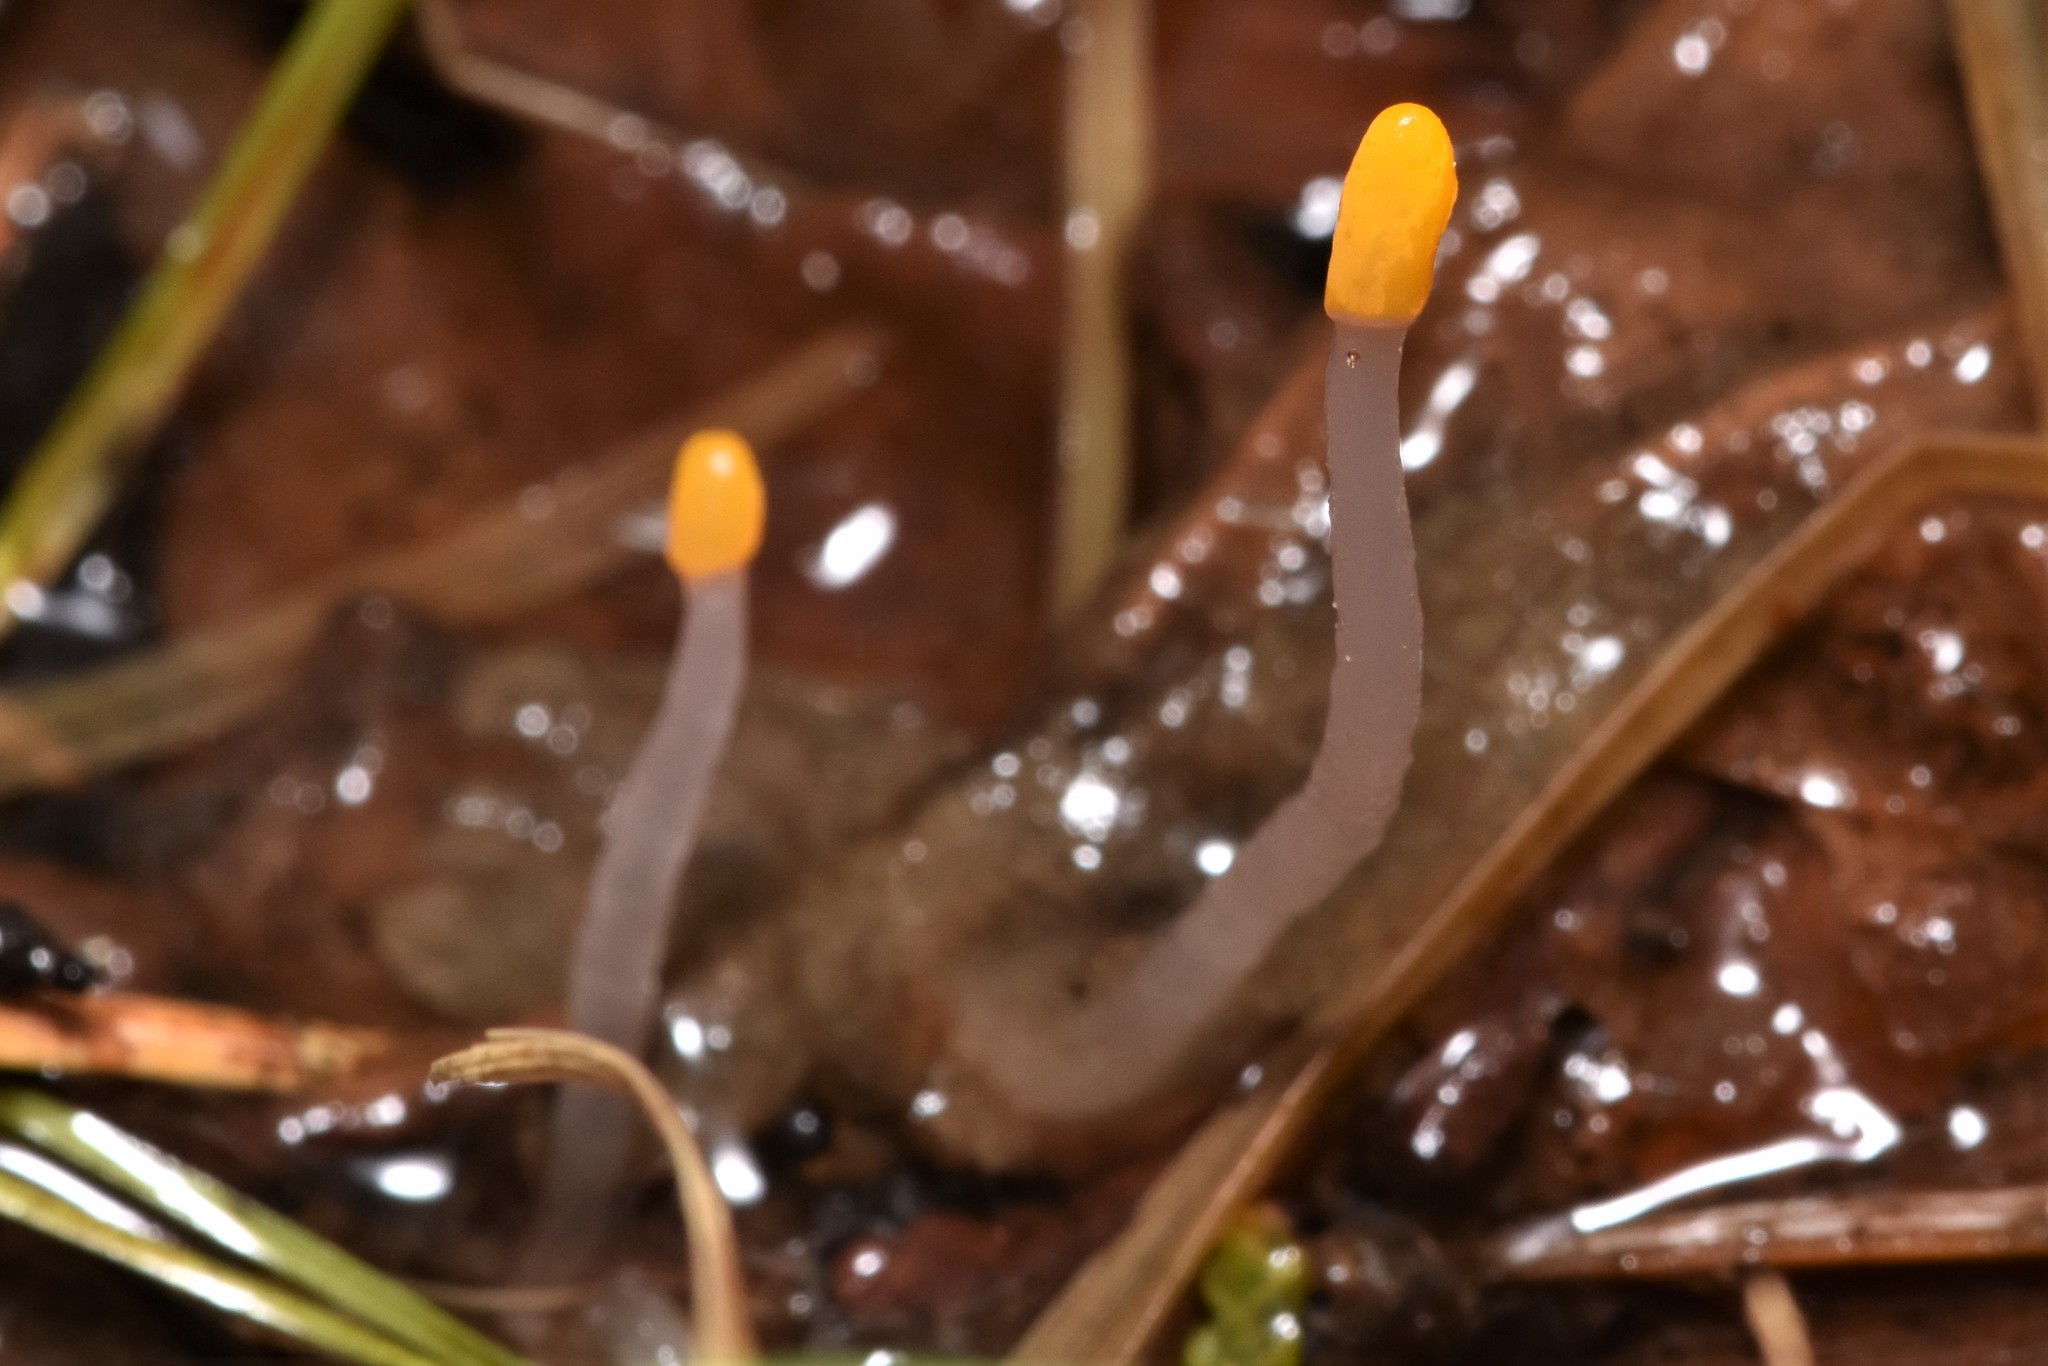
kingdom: Fungi
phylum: Ascomycota
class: Leotiomycetes
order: Helotiales
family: Sclerotiniaceae
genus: Mitrula
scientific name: Mitrula elegans
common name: Swamp beacon
